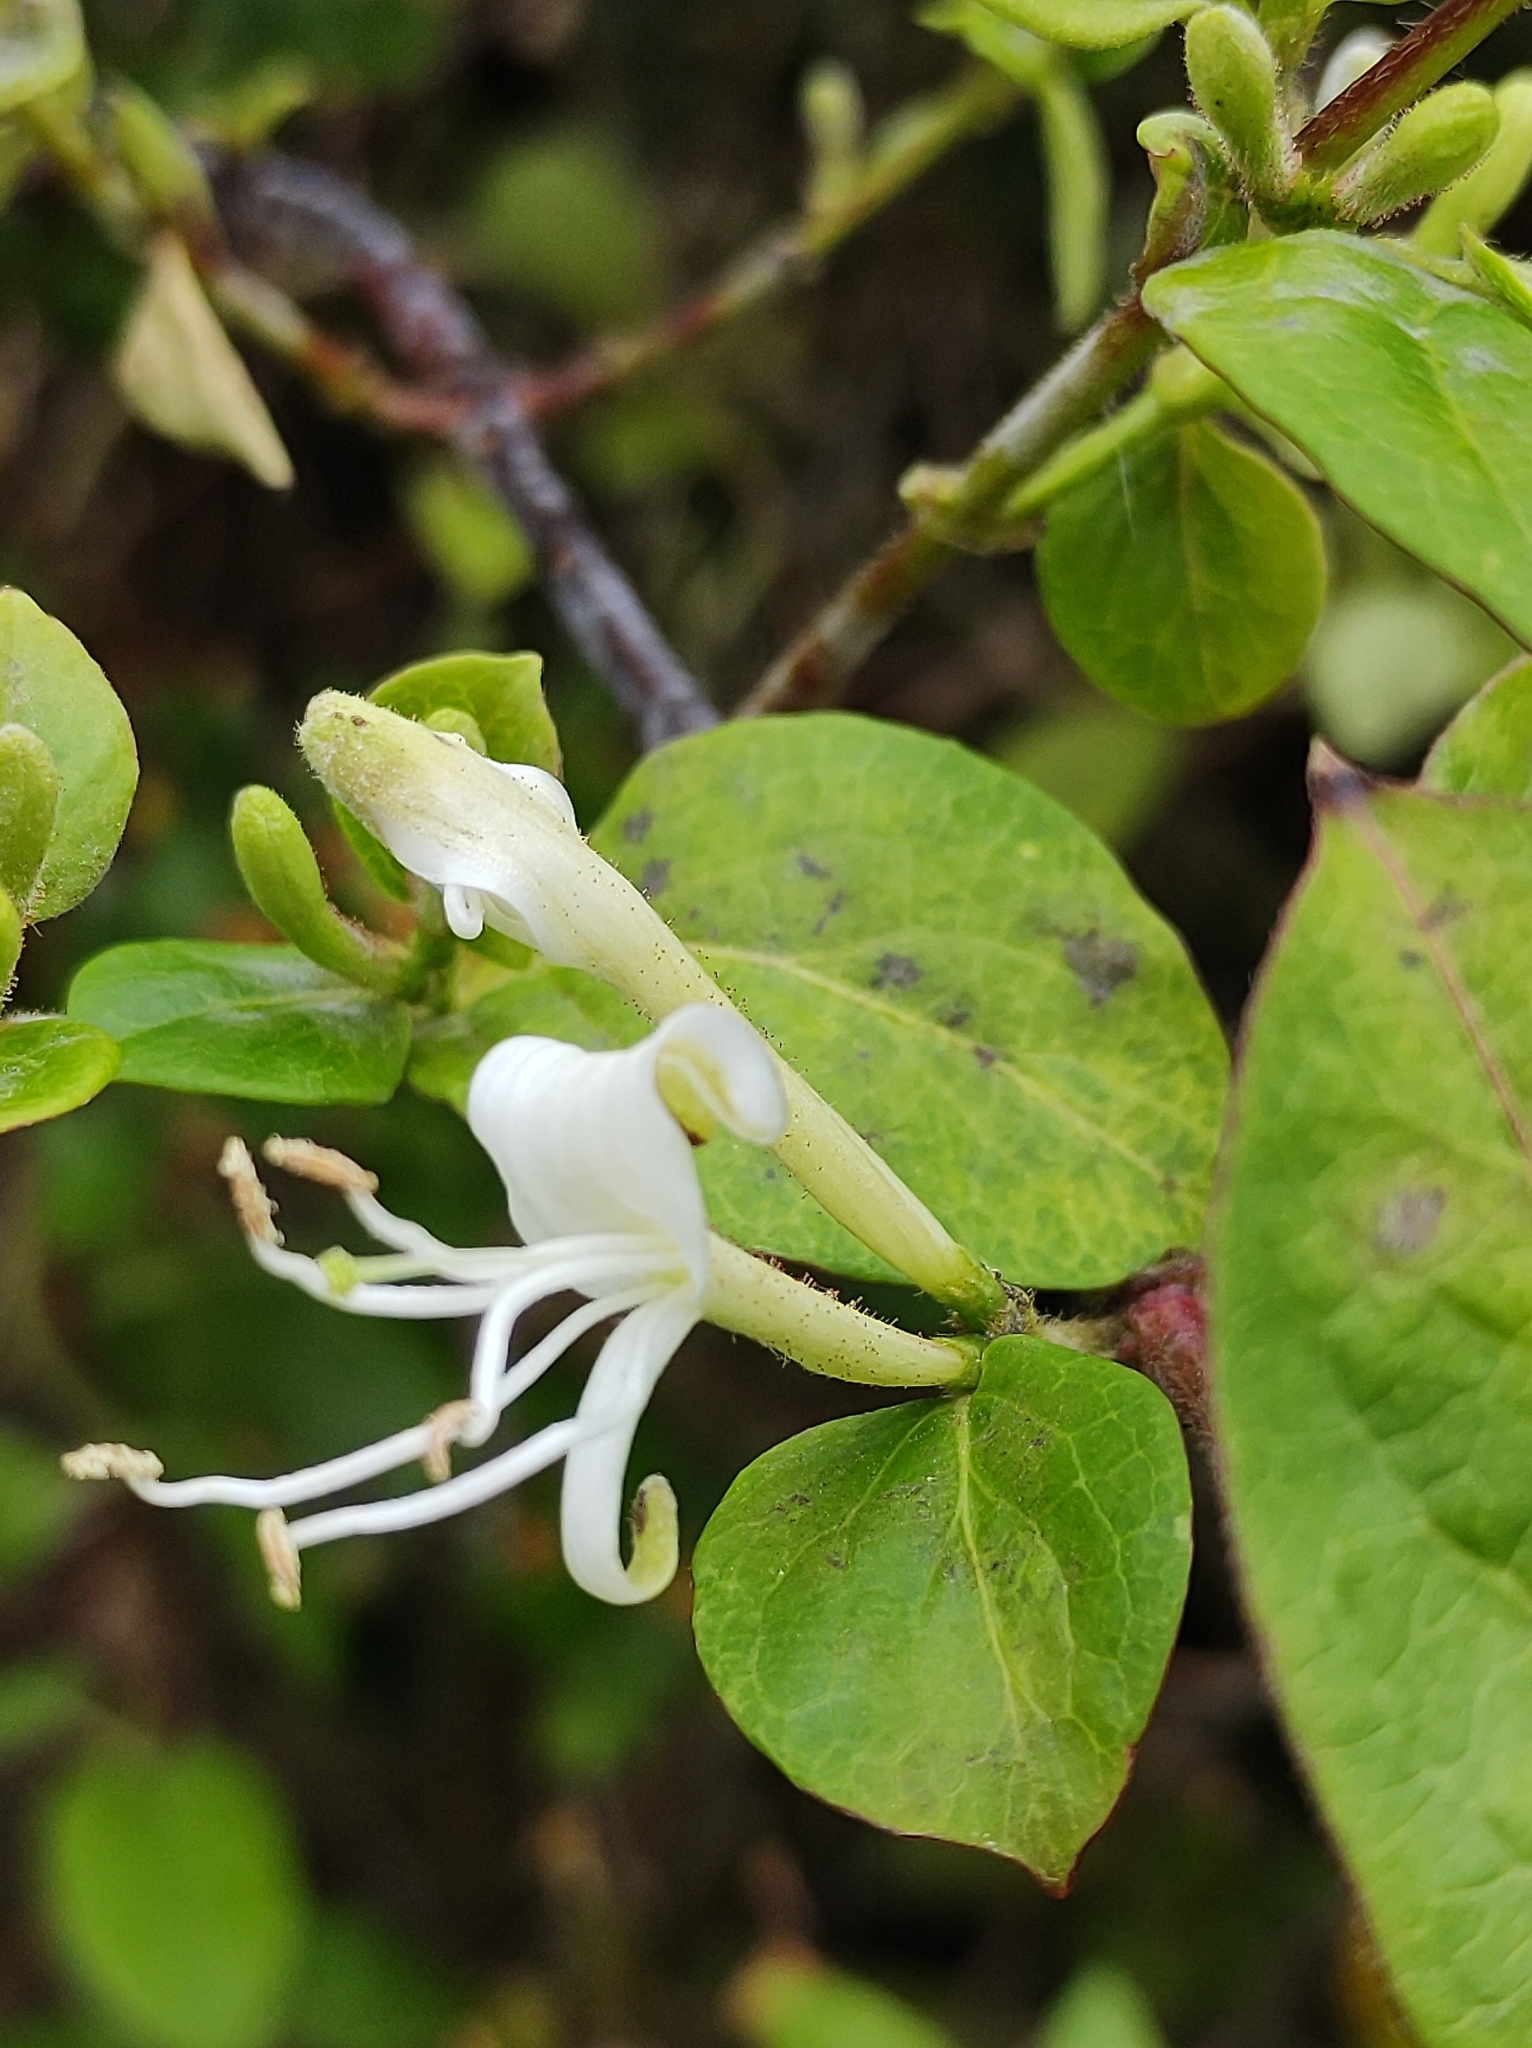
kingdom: Plantae
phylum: Tracheophyta
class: Magnoliopsida
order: Dipsacales
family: Caprifoliaceae
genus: Lonicera
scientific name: Lonicera japonica
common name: Japanese honeysuckle
